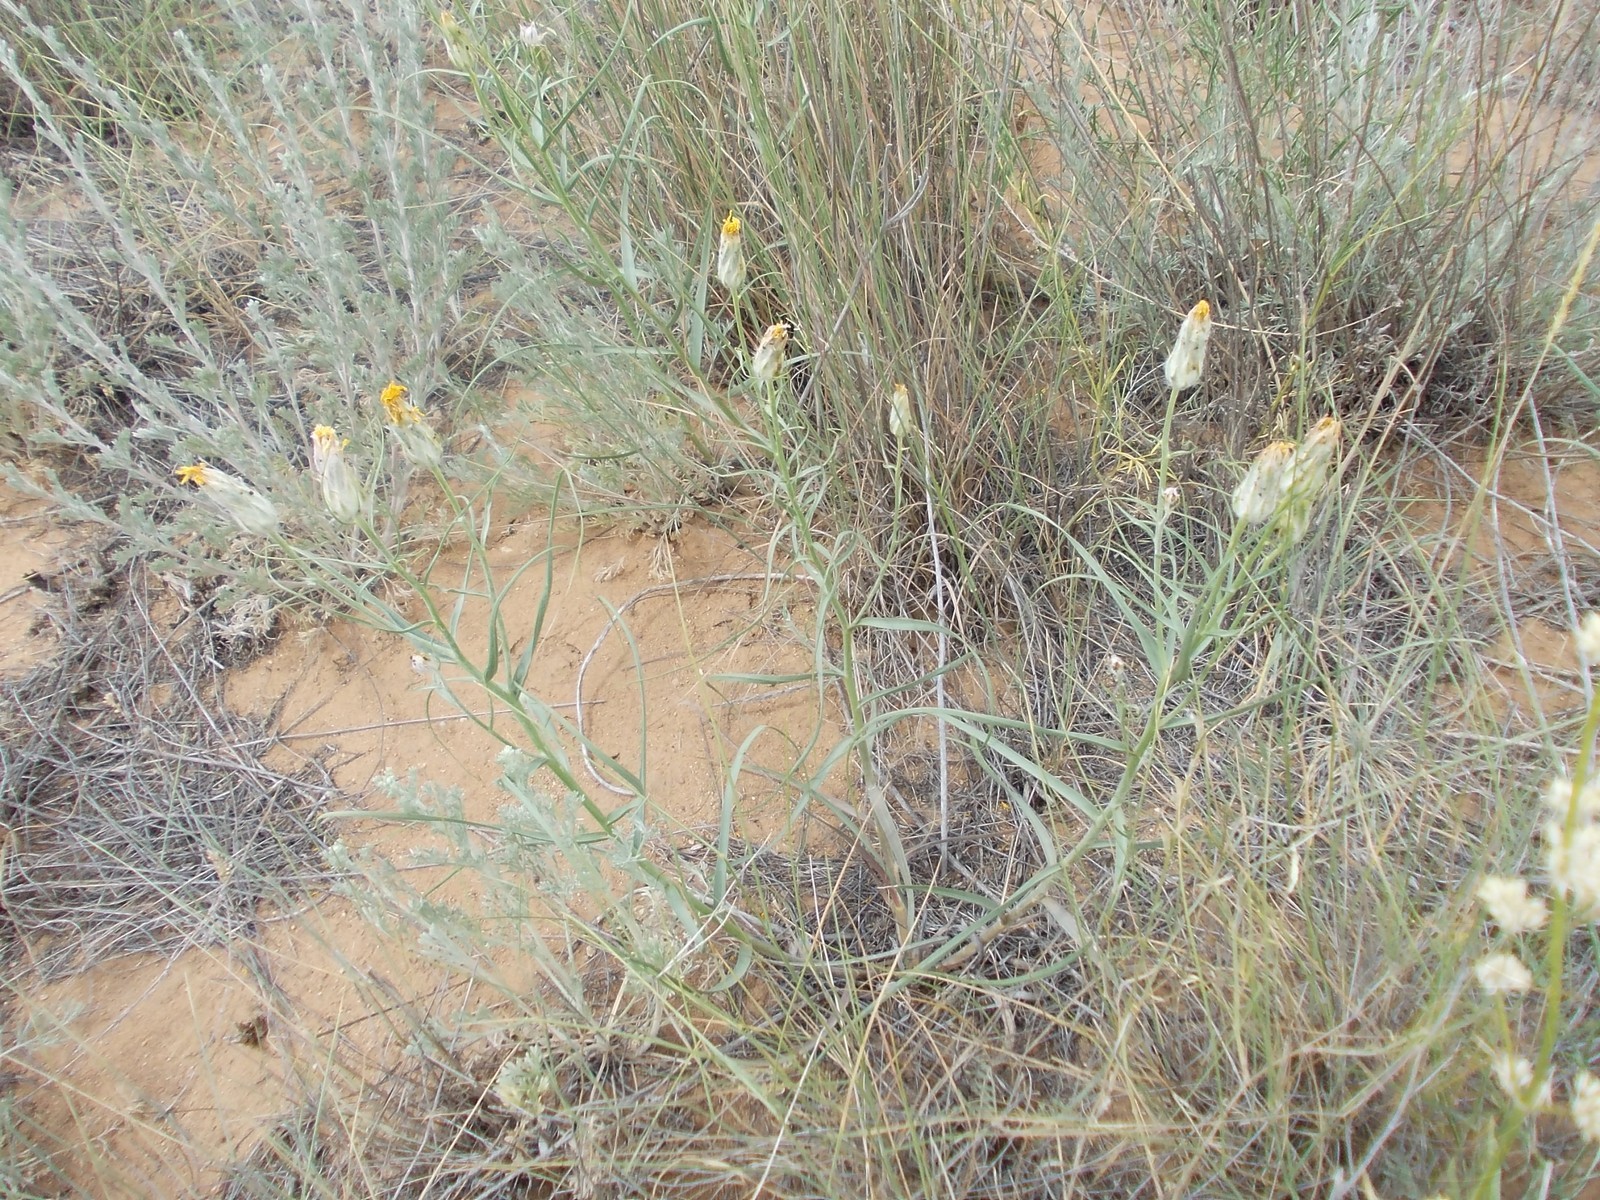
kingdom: Plantae
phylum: Tracheophyta
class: Magnoliopsida
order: Asterales
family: Asteraceae
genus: Gelasia
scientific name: Gelasia ensifolia
